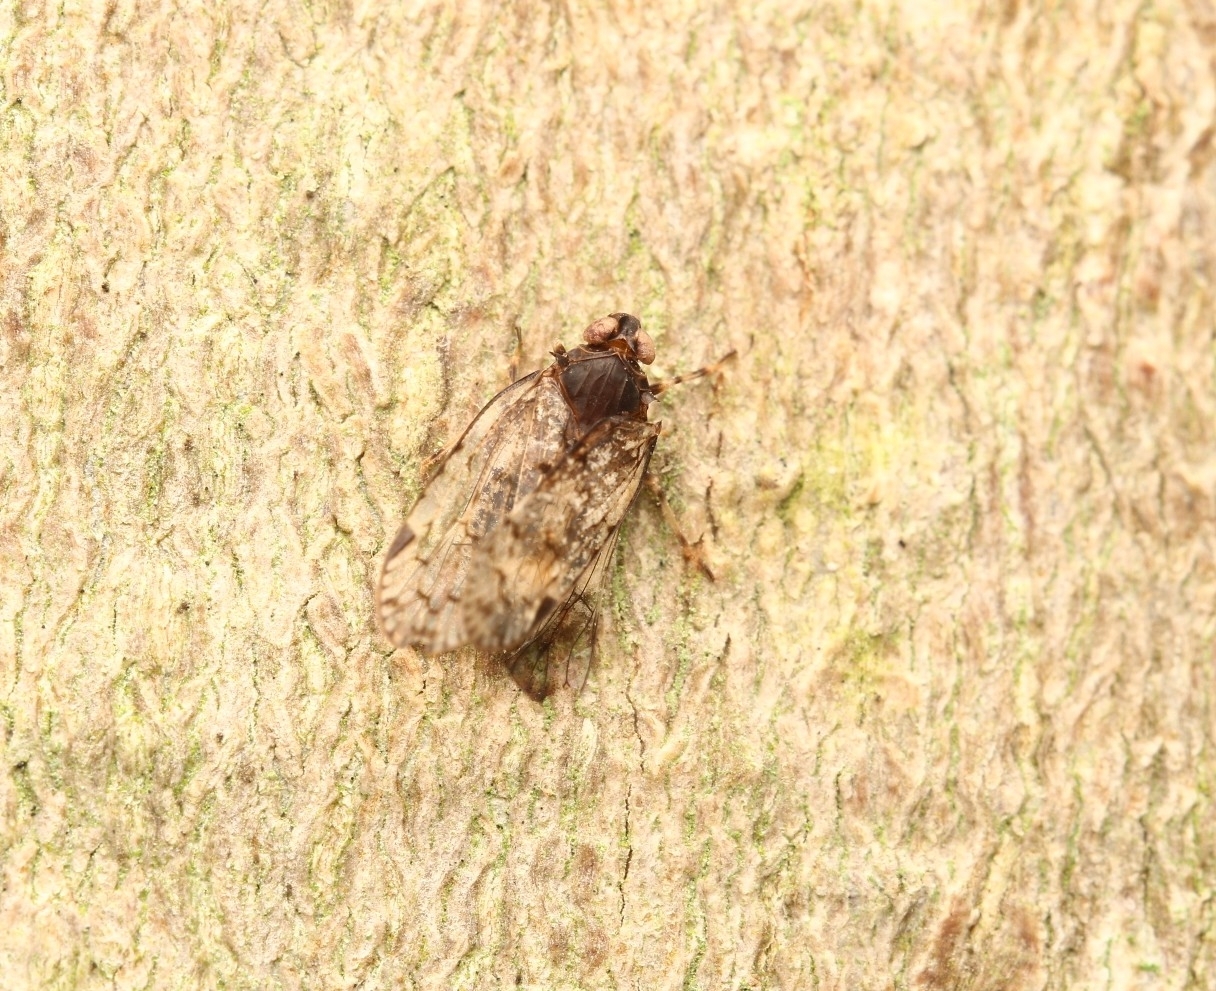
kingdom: Animalia
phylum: Arthropoda
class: Insecta
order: Hemiptera
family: Cixiidae
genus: Melanoliarus
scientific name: Melanoliarus placitus
